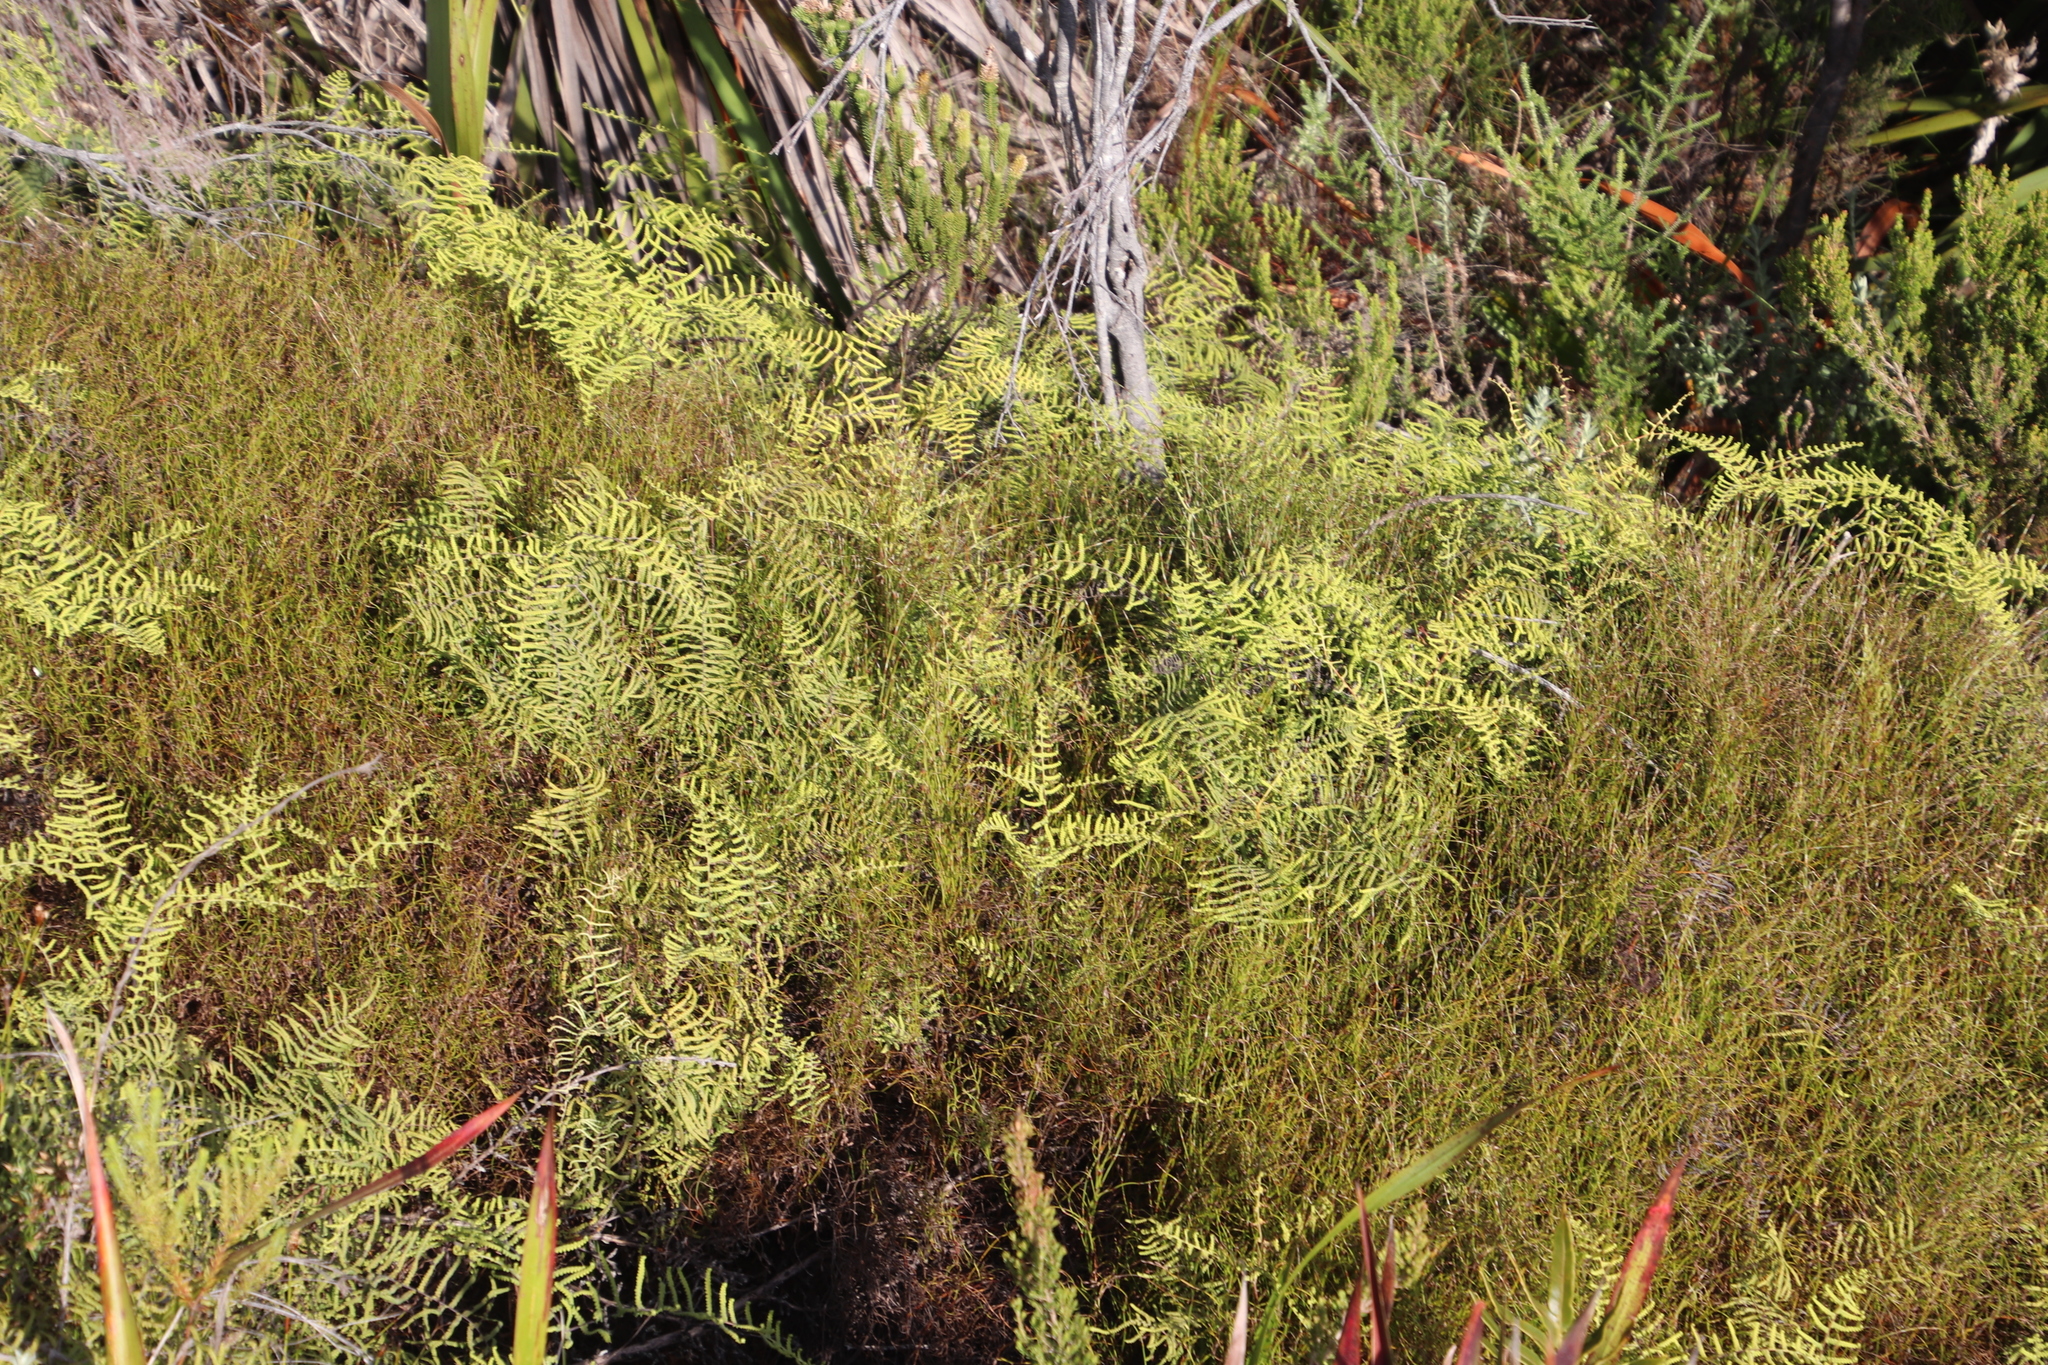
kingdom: Plantae
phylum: Tracheophyta
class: Polypodiopsida
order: Gleicheniales
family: Gleicheniaceae
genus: Gleichenia
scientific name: Gleichenia polypodioides
